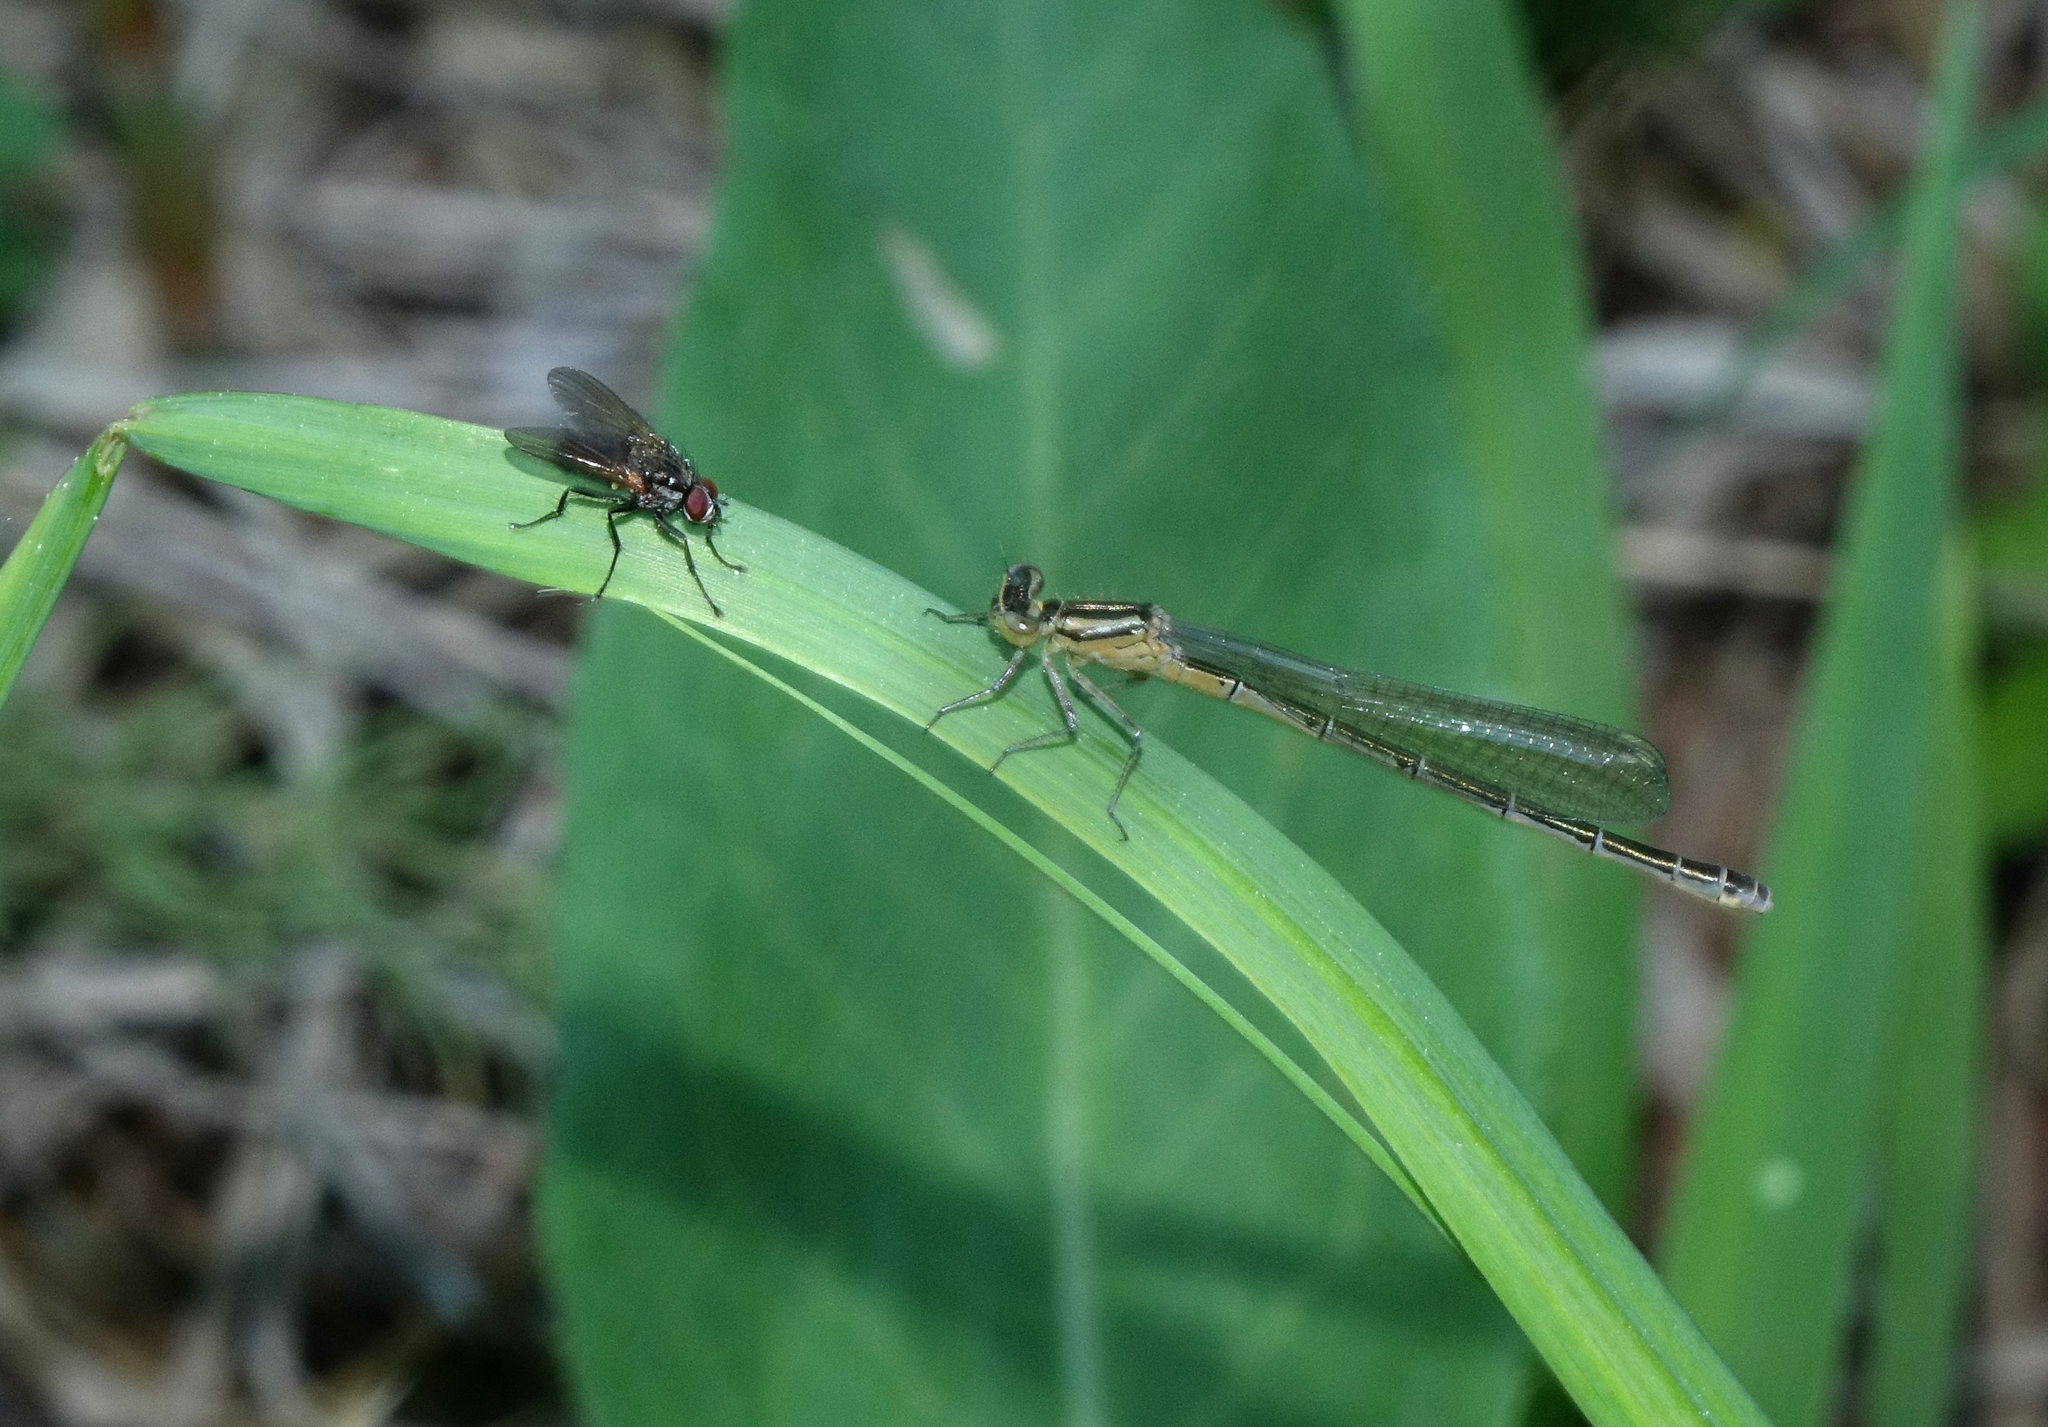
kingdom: Animalia
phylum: Arthropoda
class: Insecta
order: Odonata
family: Coenagrionidae
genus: Coenagrion
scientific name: Coenagrion hastulatum
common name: Spearhead bluet
